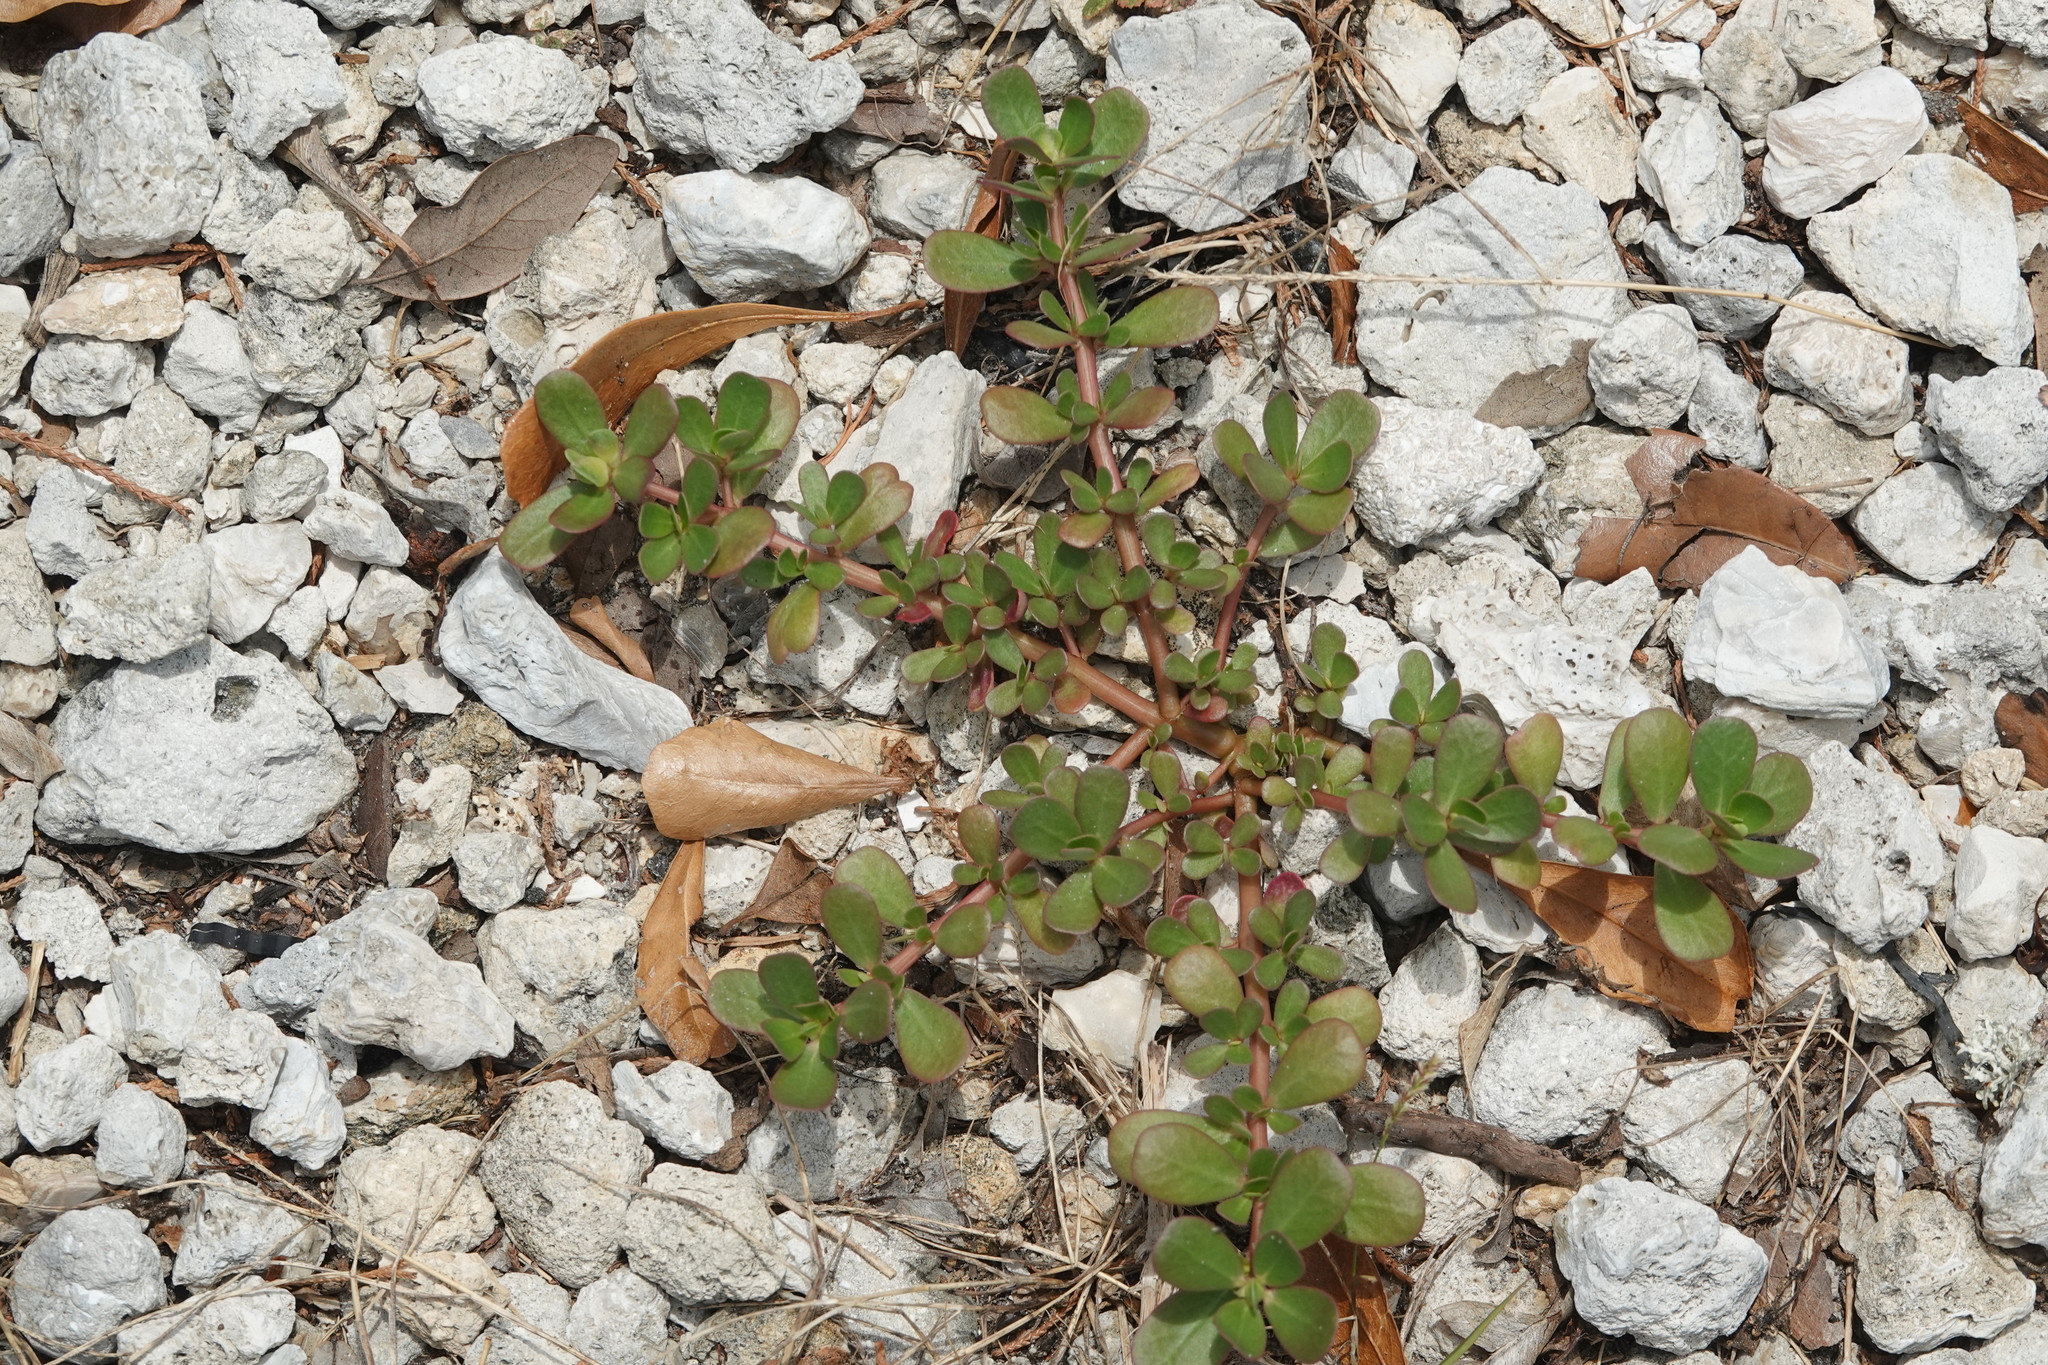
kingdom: Plantae
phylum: Tracheophyta
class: Magnoliopsida
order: Caryophyllales
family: Portulacaceae
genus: Portulaca
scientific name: Portulaca oleracea
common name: Common purslane
